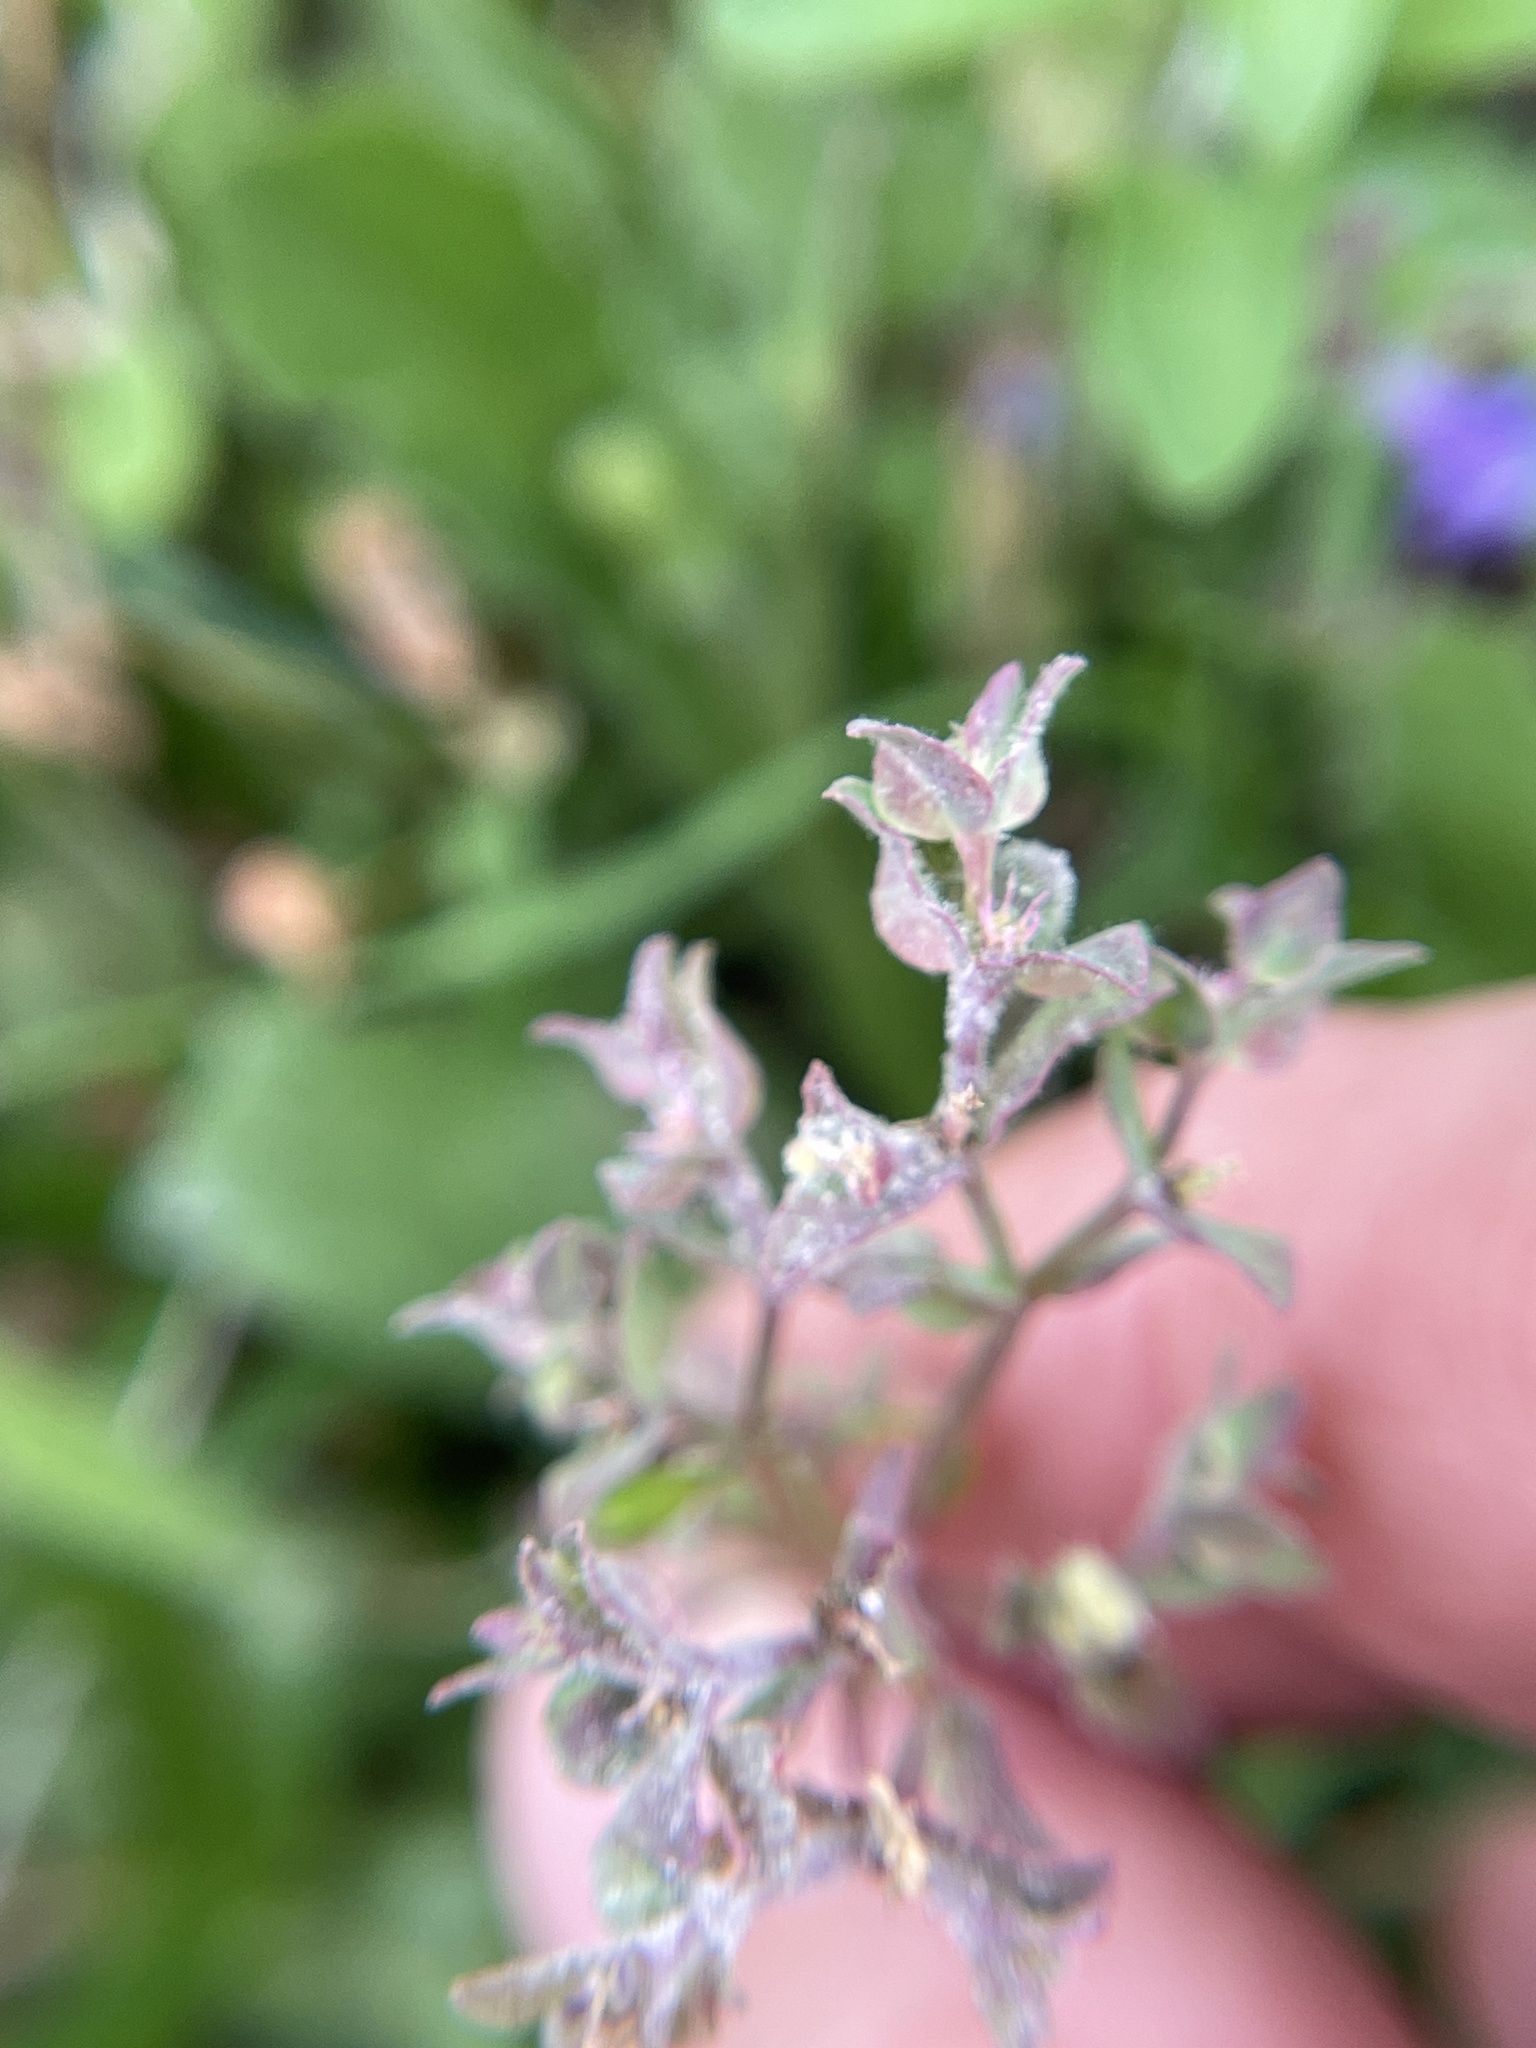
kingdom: Plantae
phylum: Tracheophyta
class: Magnoliopsida
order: Malpighiales
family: Euphorbiaceae
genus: Euphorbia
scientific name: Euphorbia peplidion
